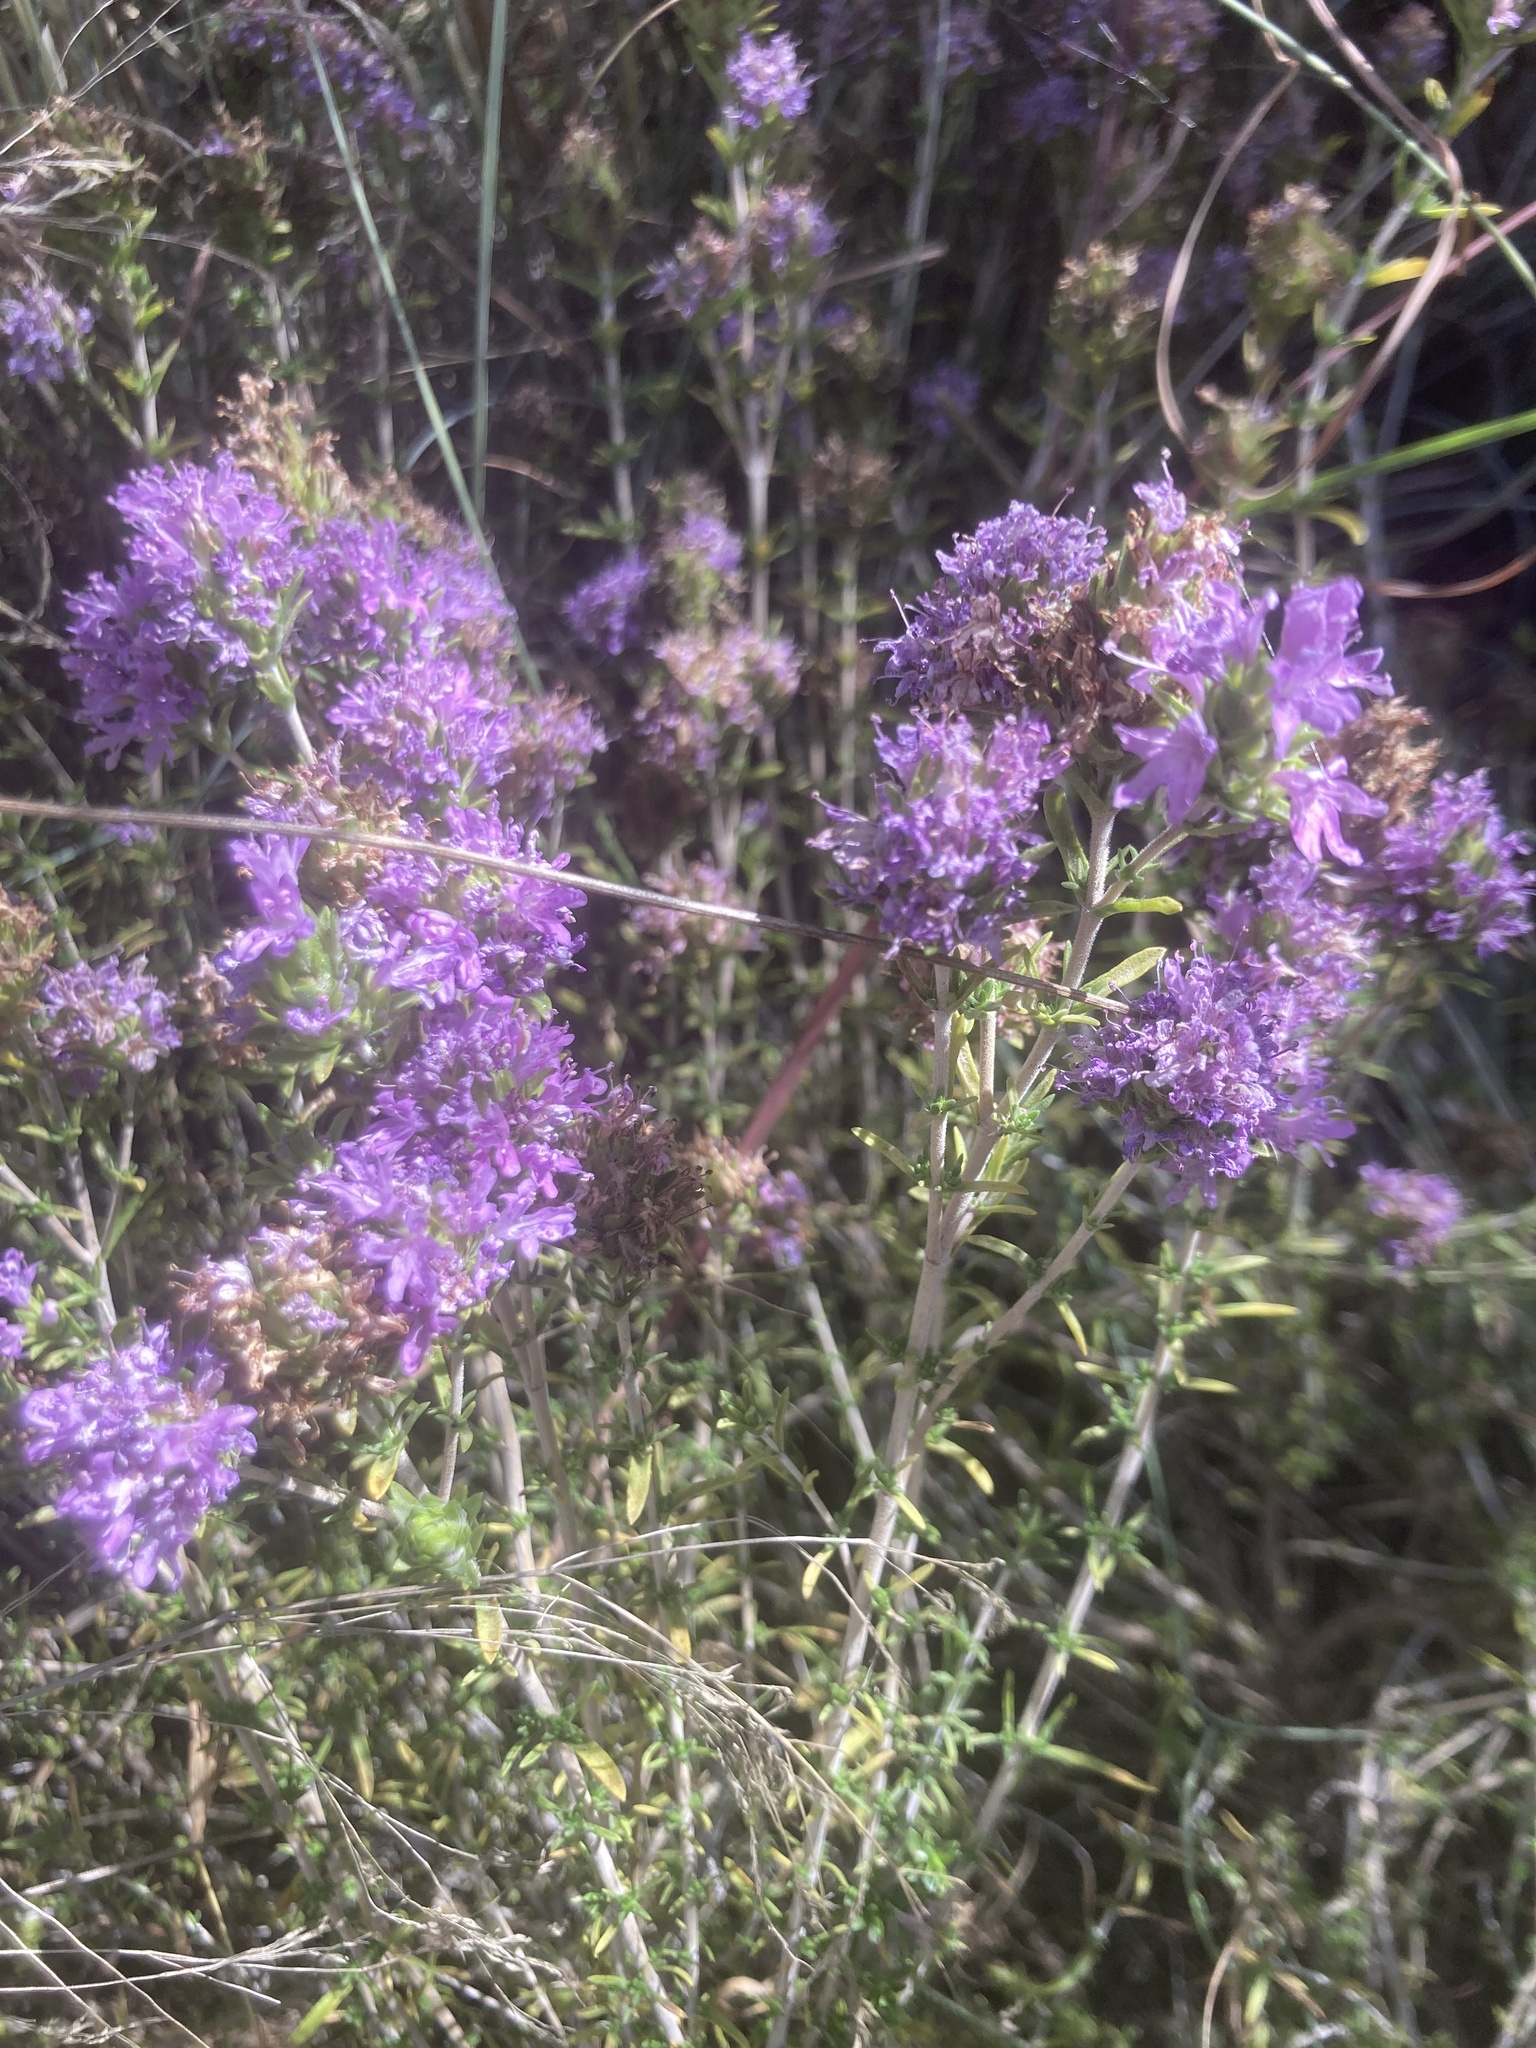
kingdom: Plantae
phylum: Tracheophyta
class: Magnoliopsida
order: Lamiales
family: Lamiaceae
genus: Thymbra
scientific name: Thymbra capitata
